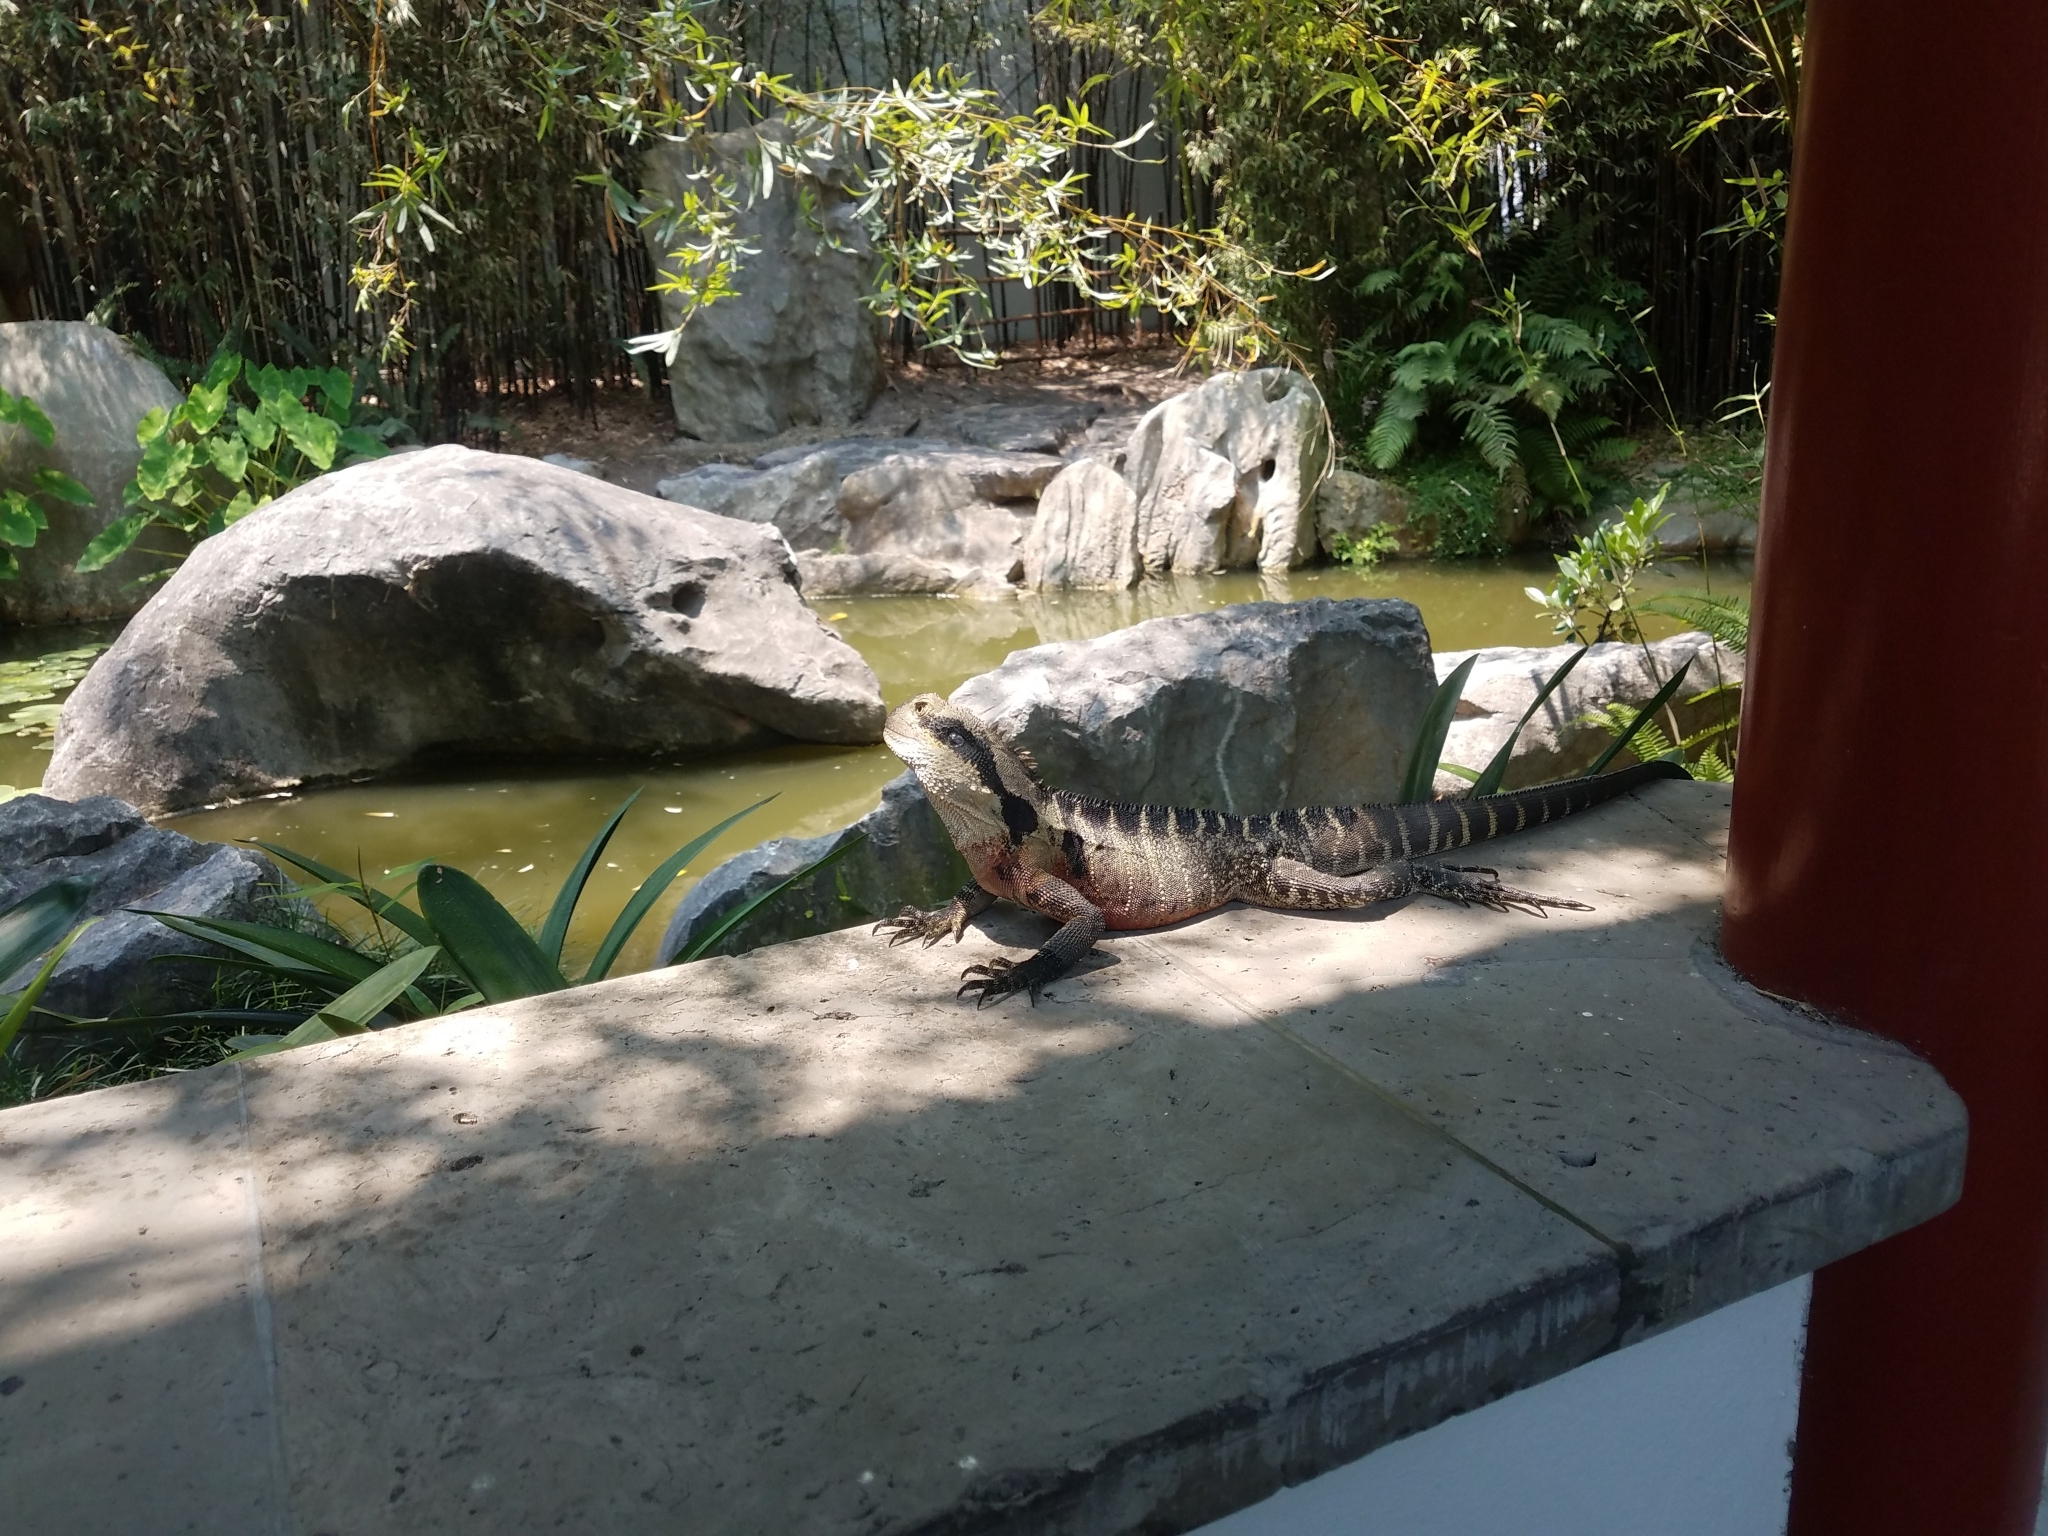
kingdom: Animalia
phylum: Chordata
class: Squamata
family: Agamidae
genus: Intellagama
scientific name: Intellagama lesueurii
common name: Eastern water dragon
